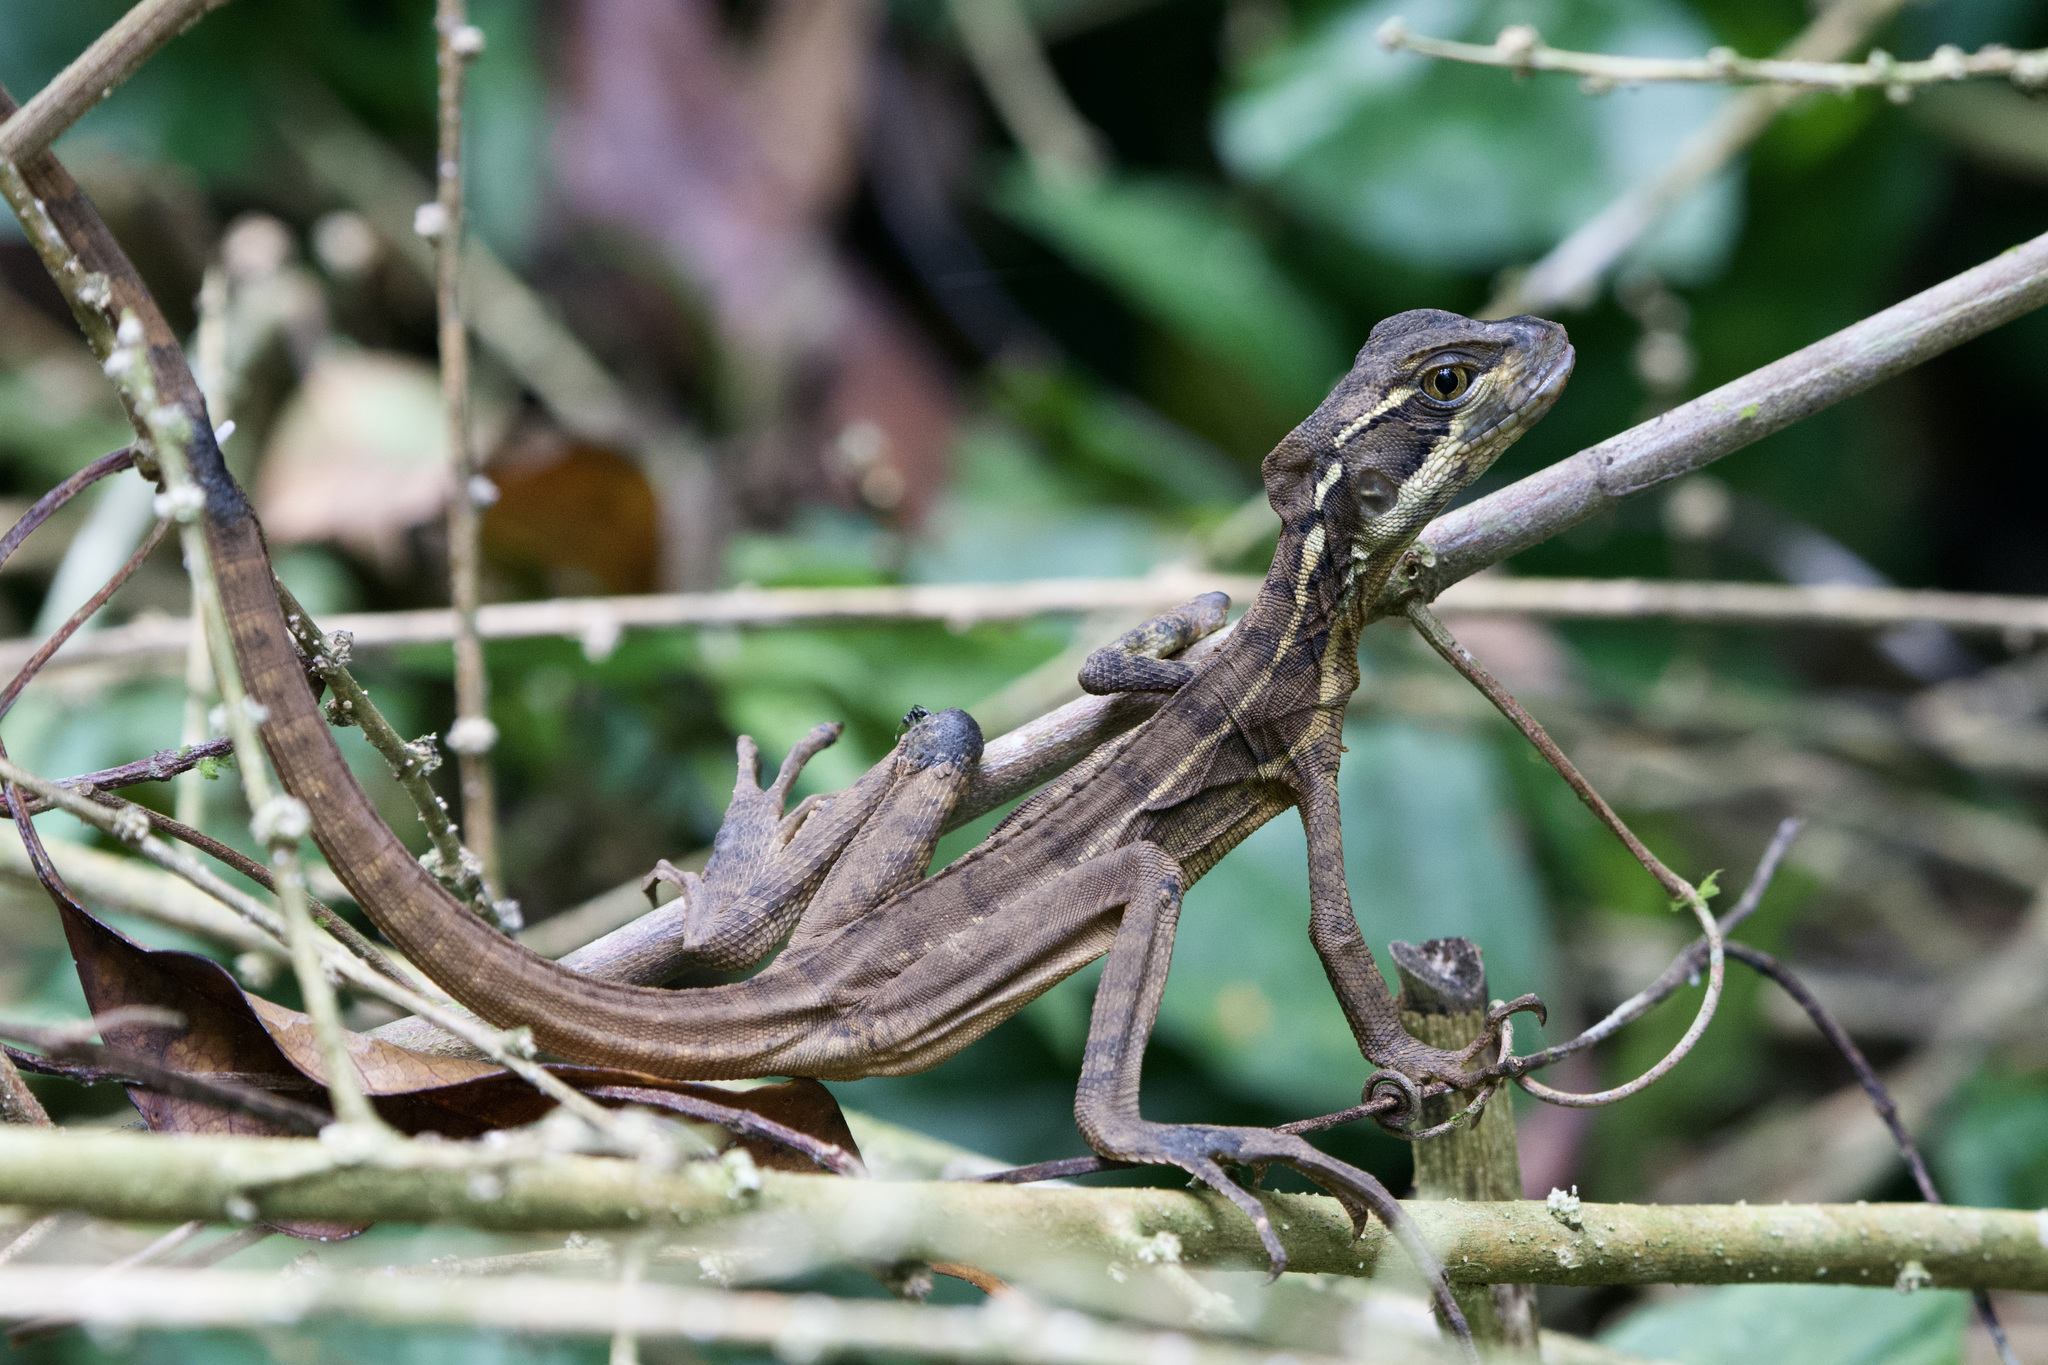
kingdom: Animalia
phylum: Chordata
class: Squamata
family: Corytophanidae
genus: Basiliscus
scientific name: Basiliscus basiliscus
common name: Common basilisk
